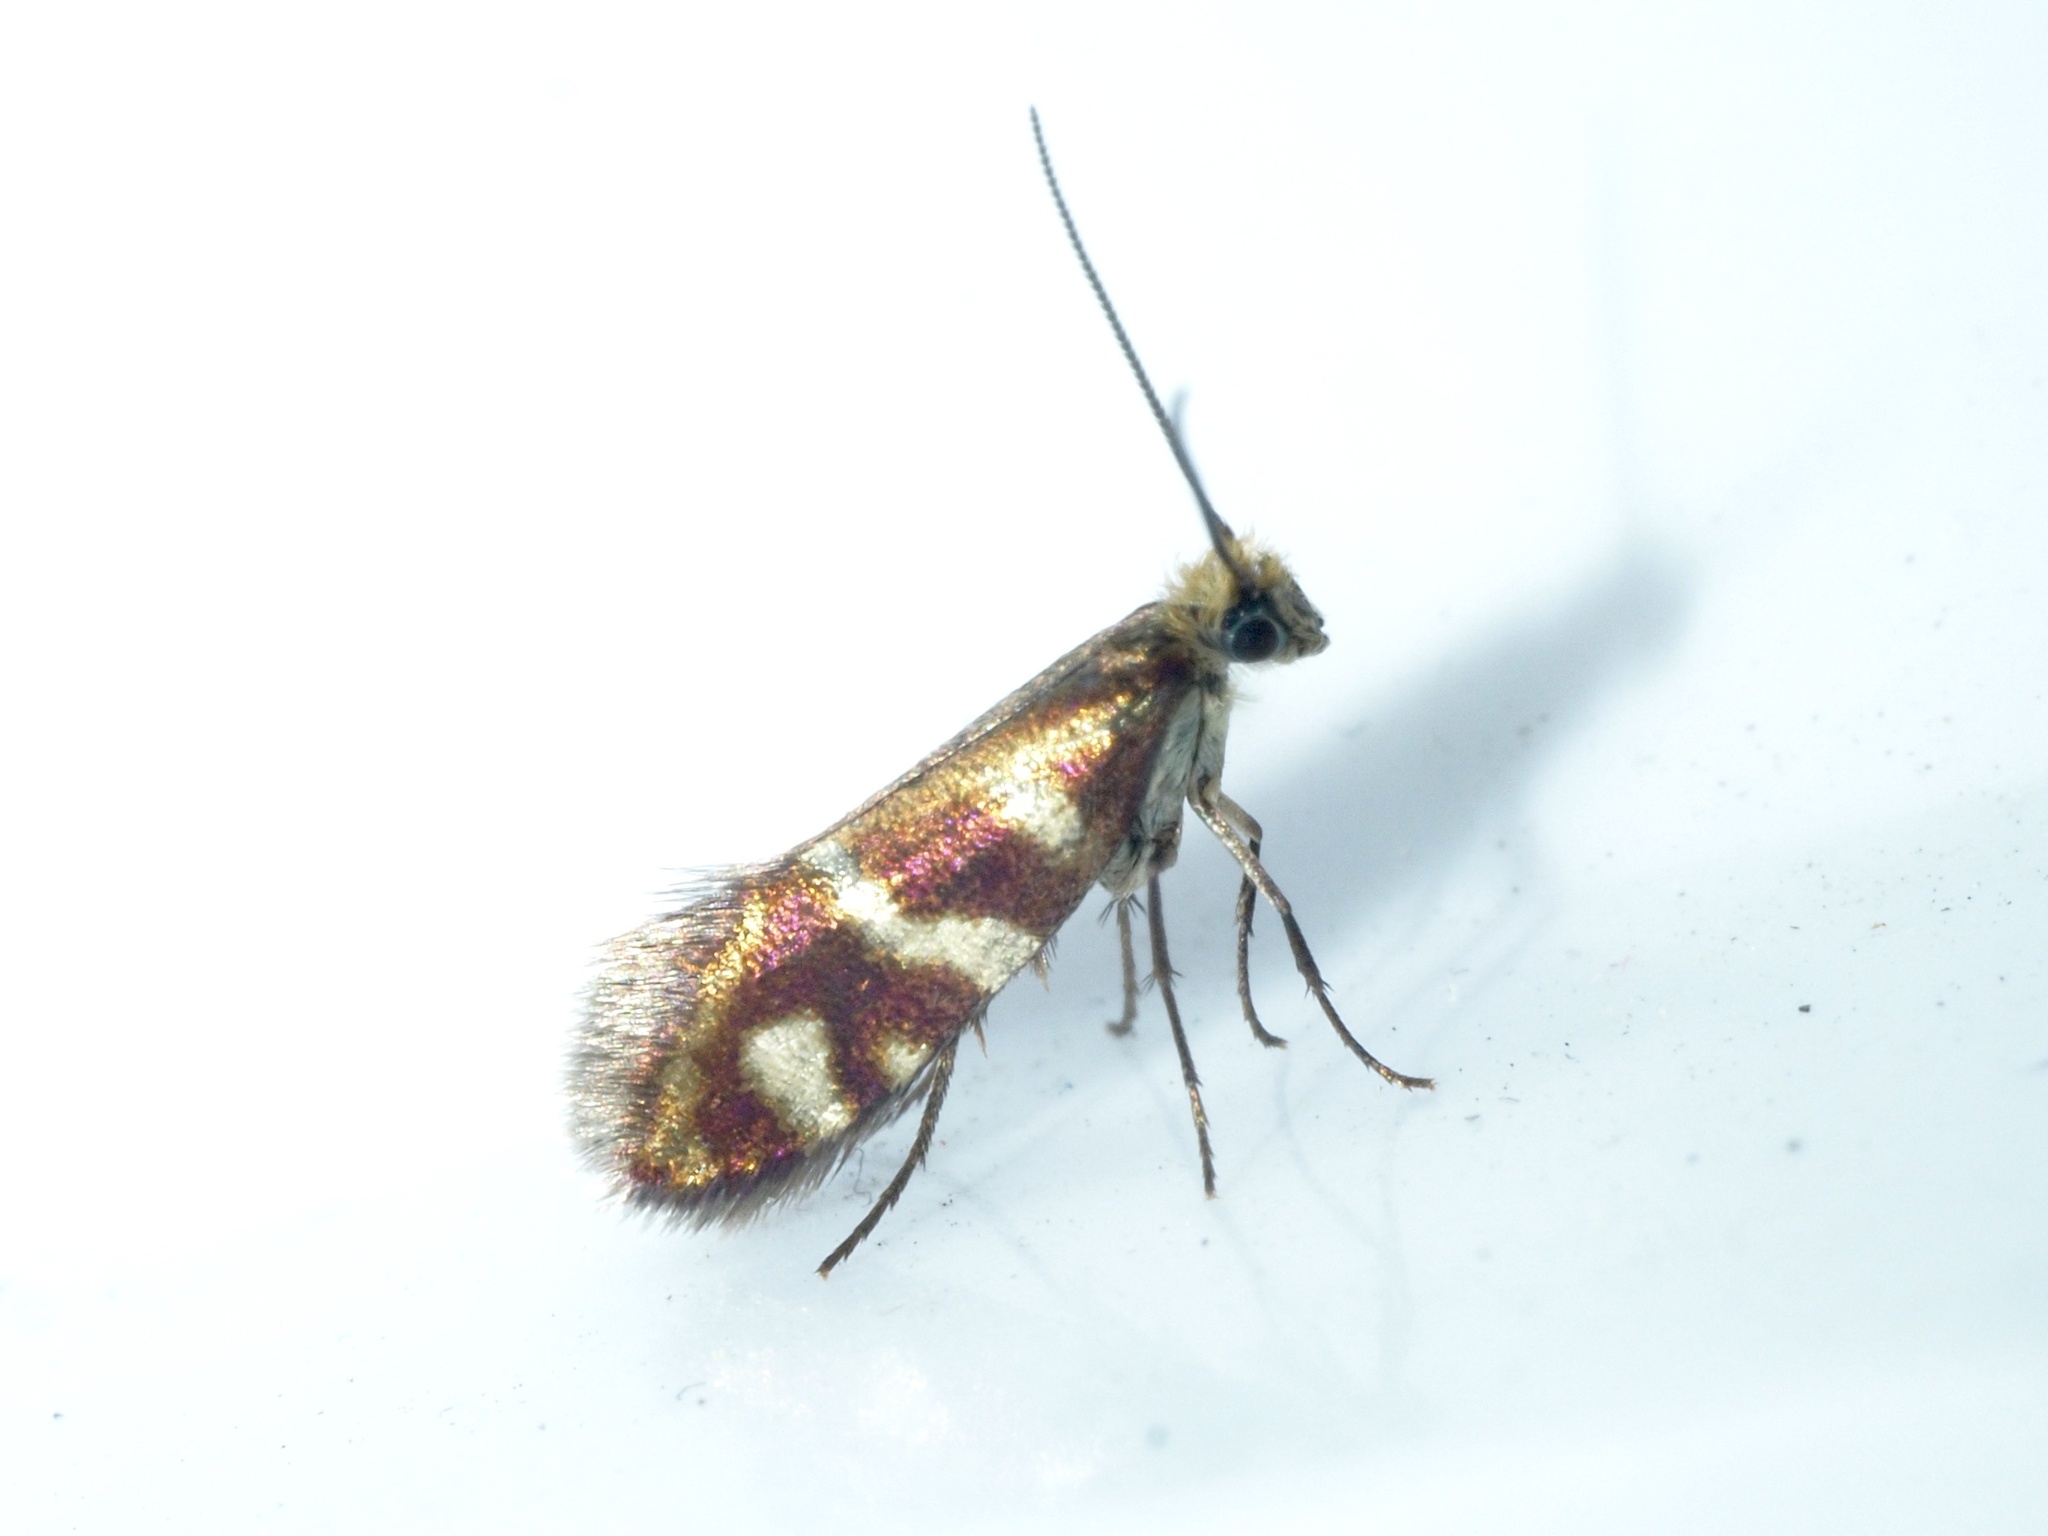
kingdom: Animalia
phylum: Arthropoda
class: Insecta
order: Lepidoptera
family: Micropterigidae
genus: Micropterix
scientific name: Micropterix schaefferi
